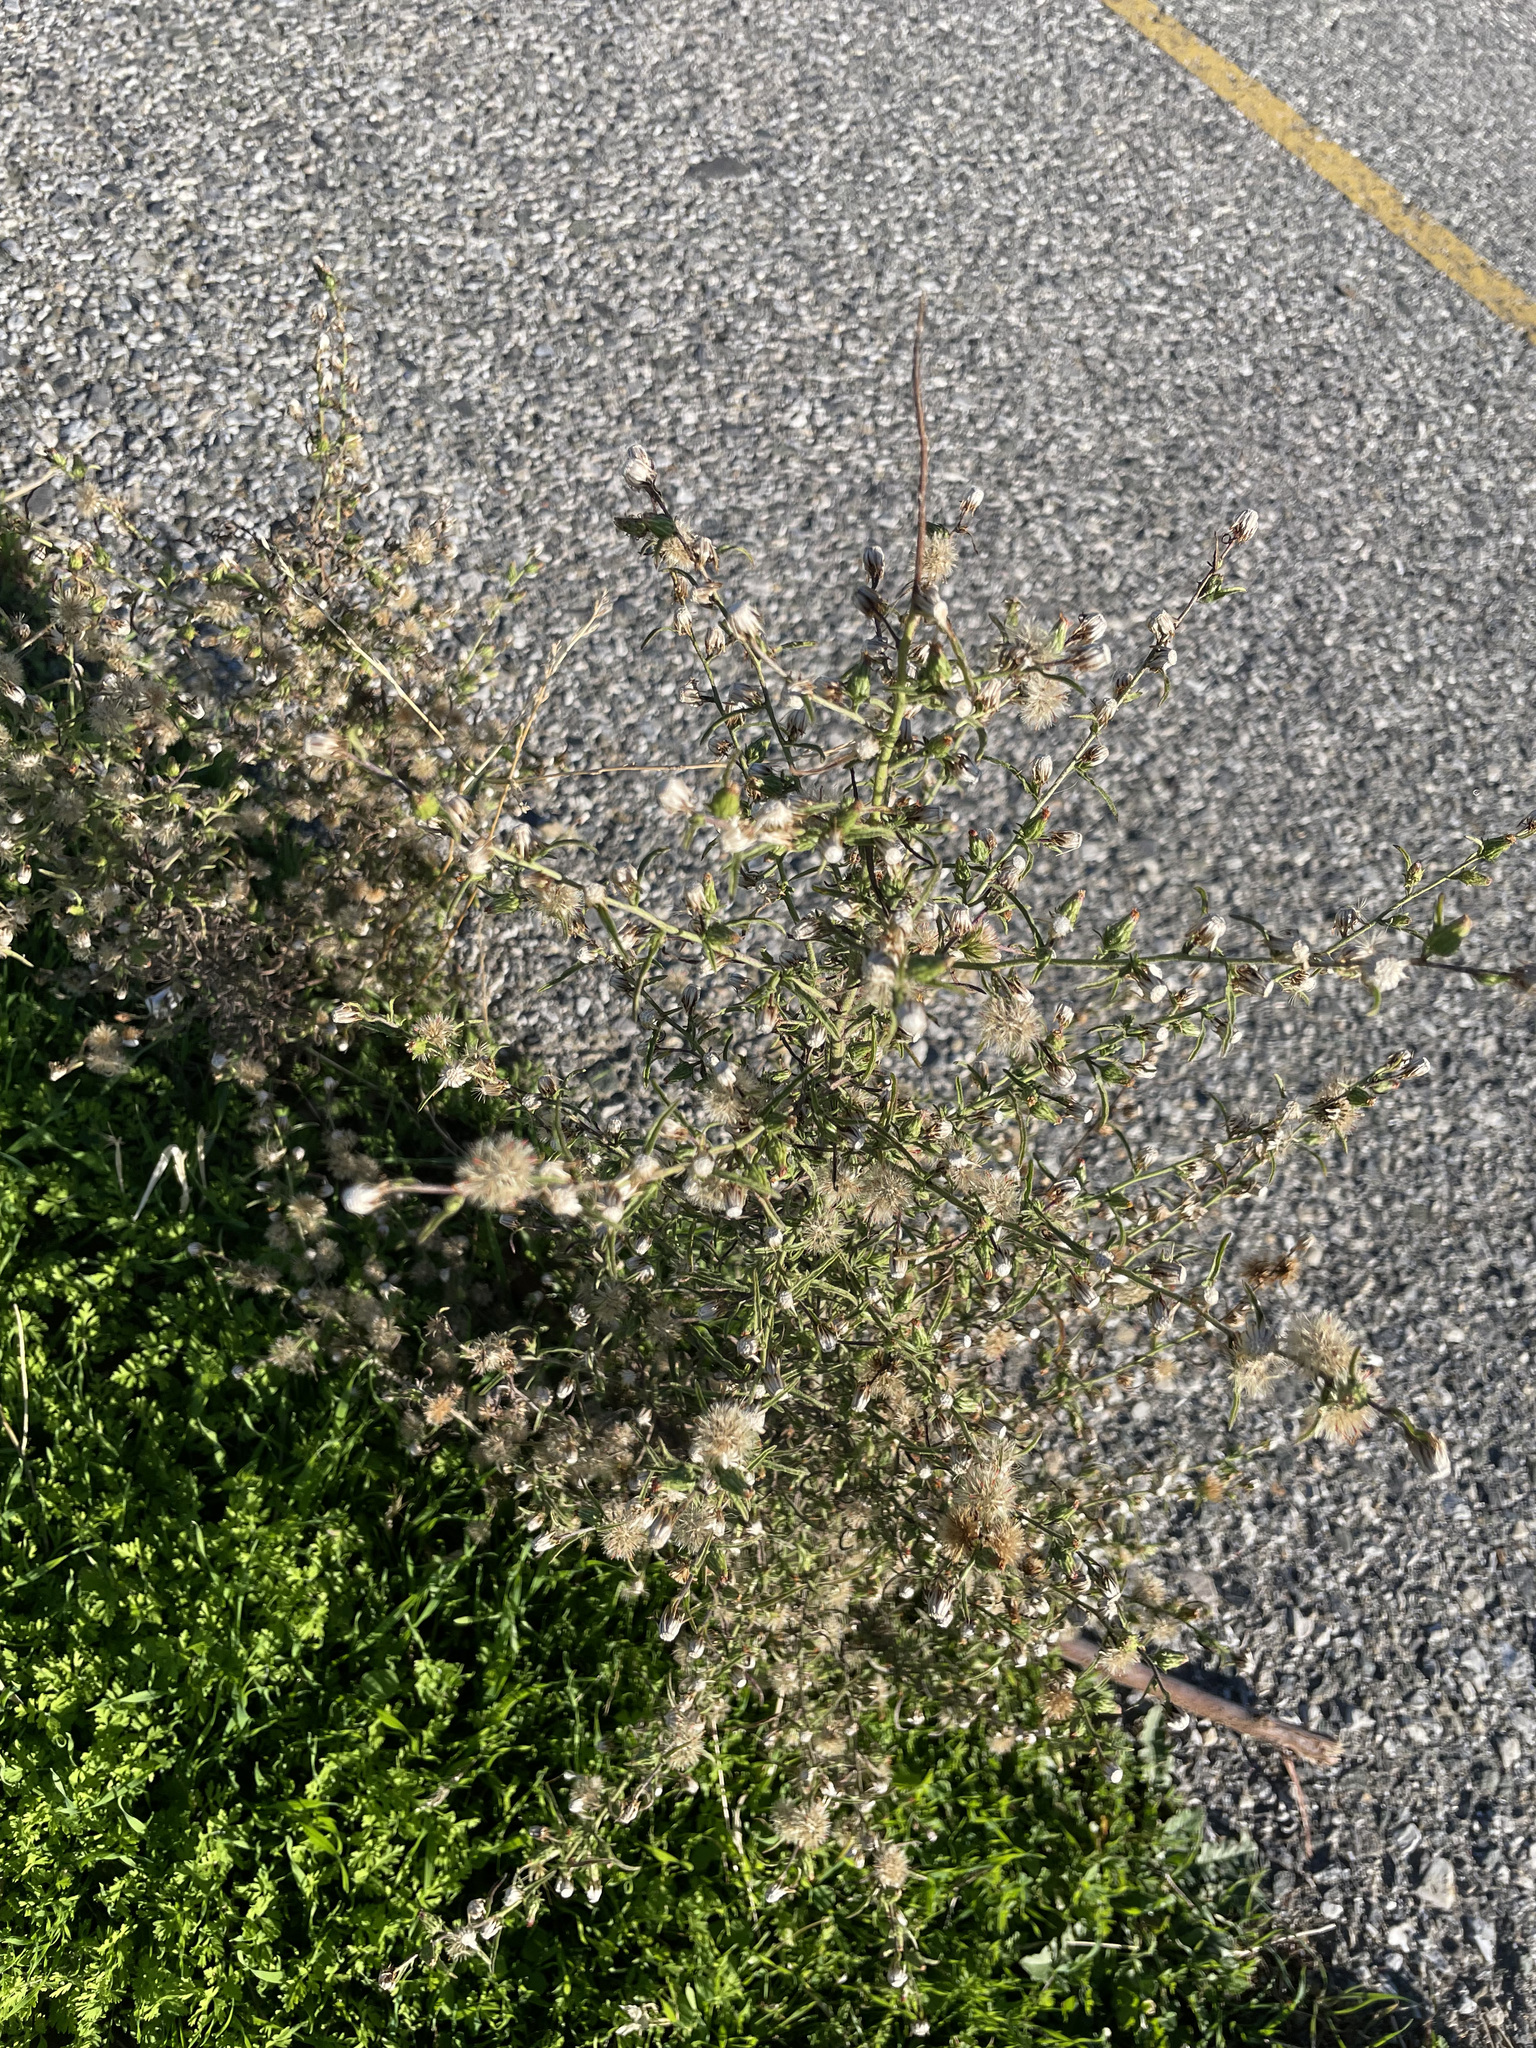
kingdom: Plantae
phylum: Tracheophyta
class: Magnoliopsida
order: Asterales
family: Asteraceae
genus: Dittrichia
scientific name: Dittrichia graveolens
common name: Stinking fleabane
